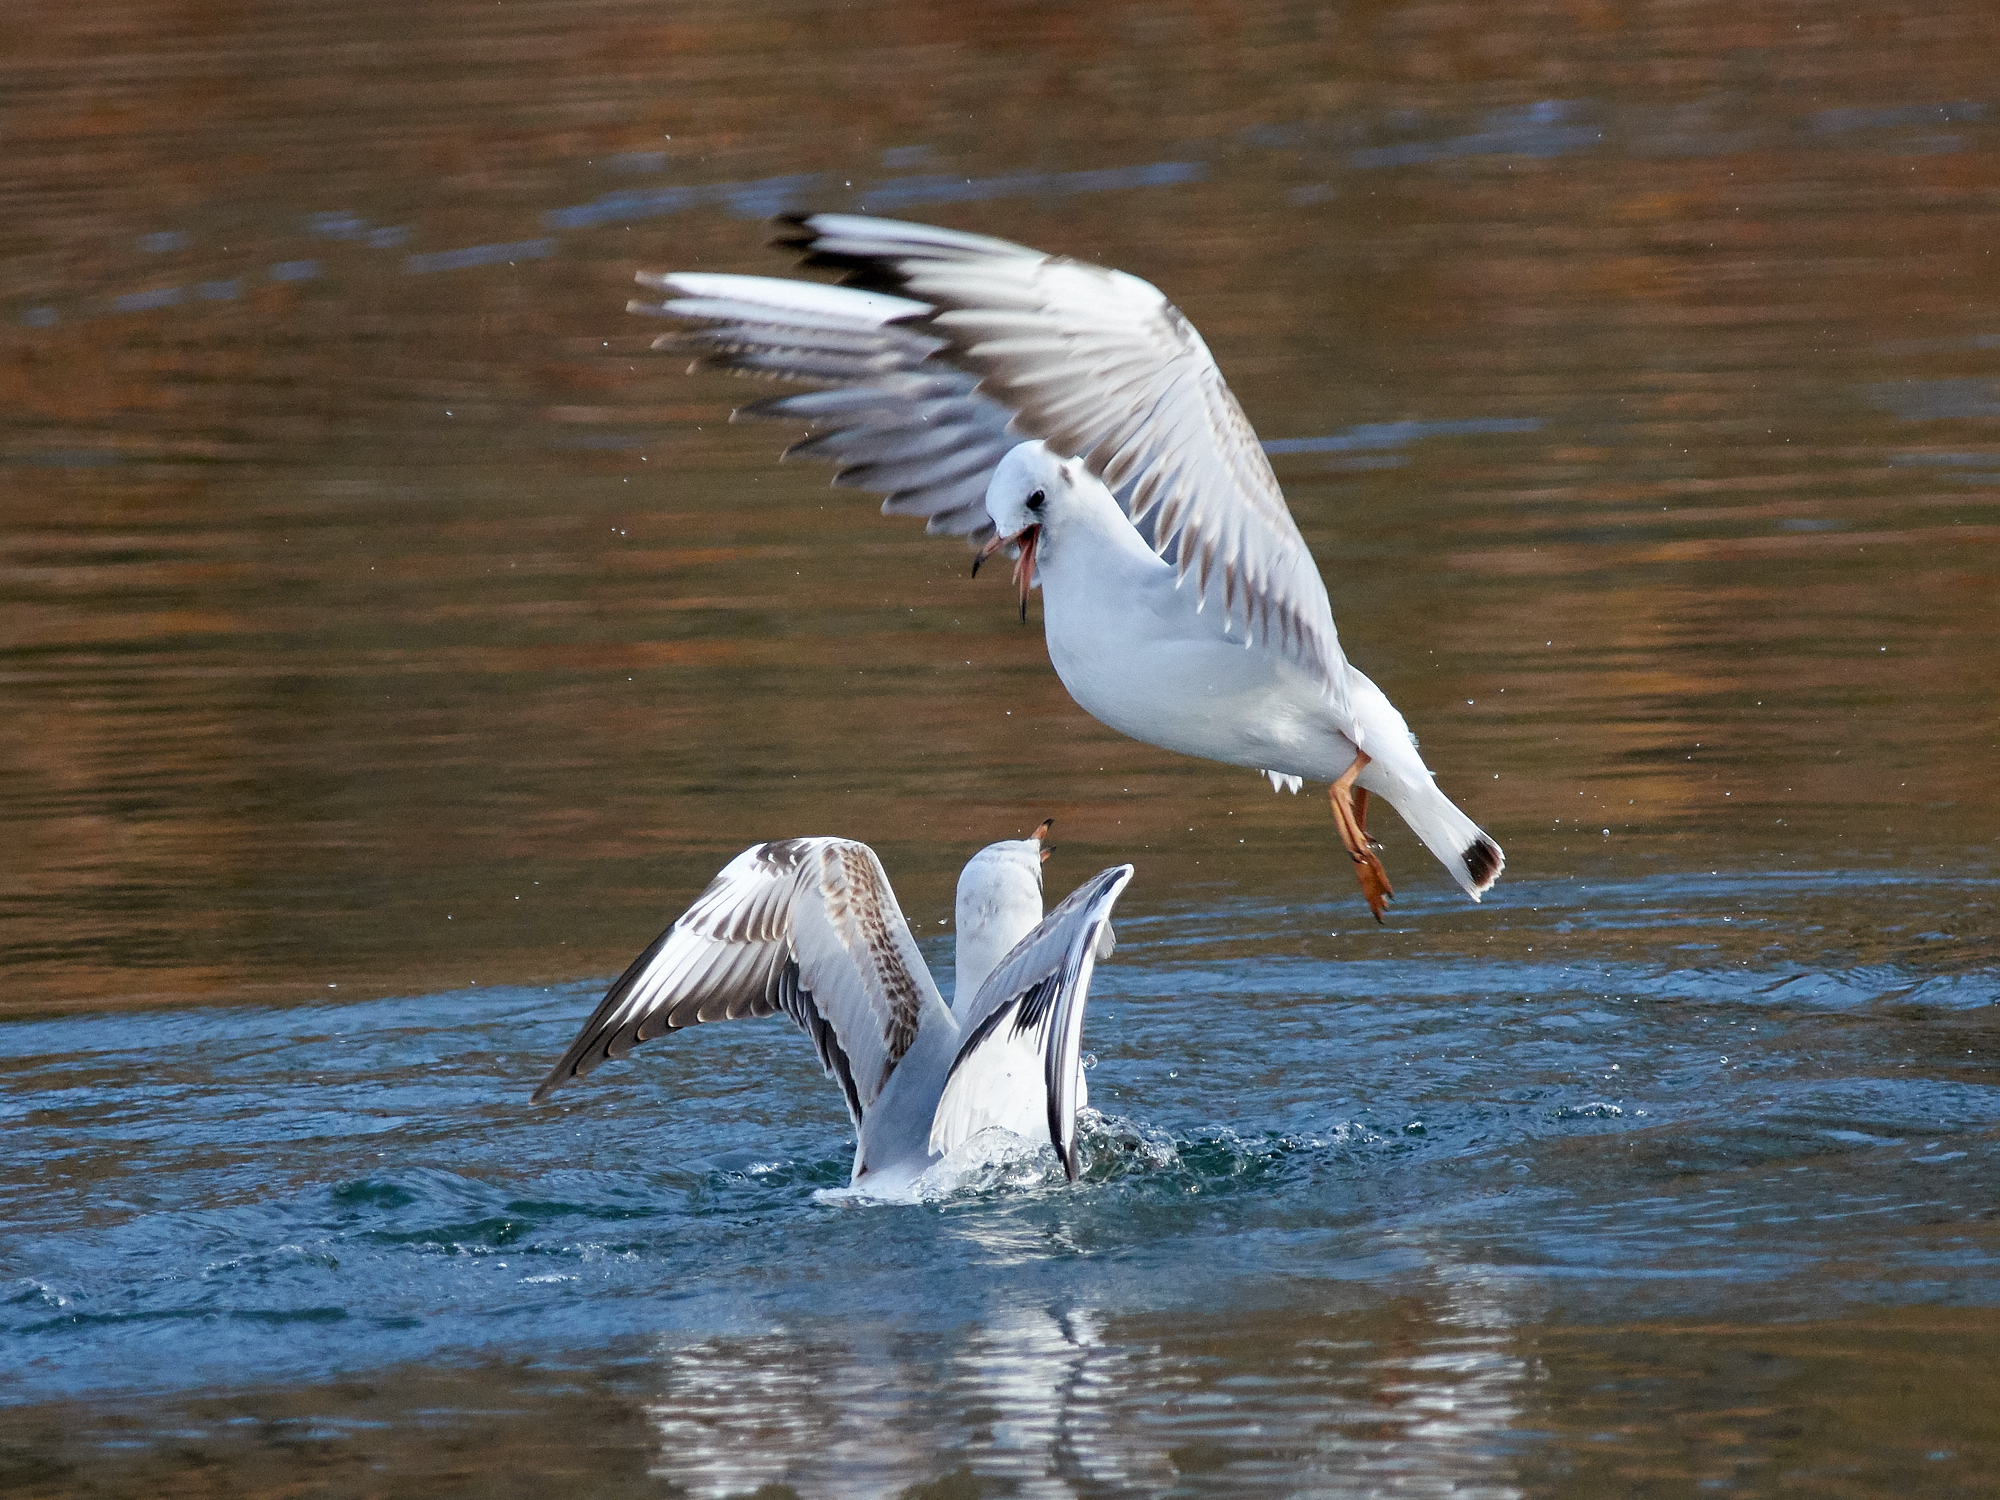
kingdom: Animalia
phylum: Chordata
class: Aves
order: Charadriiformes
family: Laridae
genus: Chroicocephalus
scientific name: Chroicocephalus ridibundus
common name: Black-headed gull
